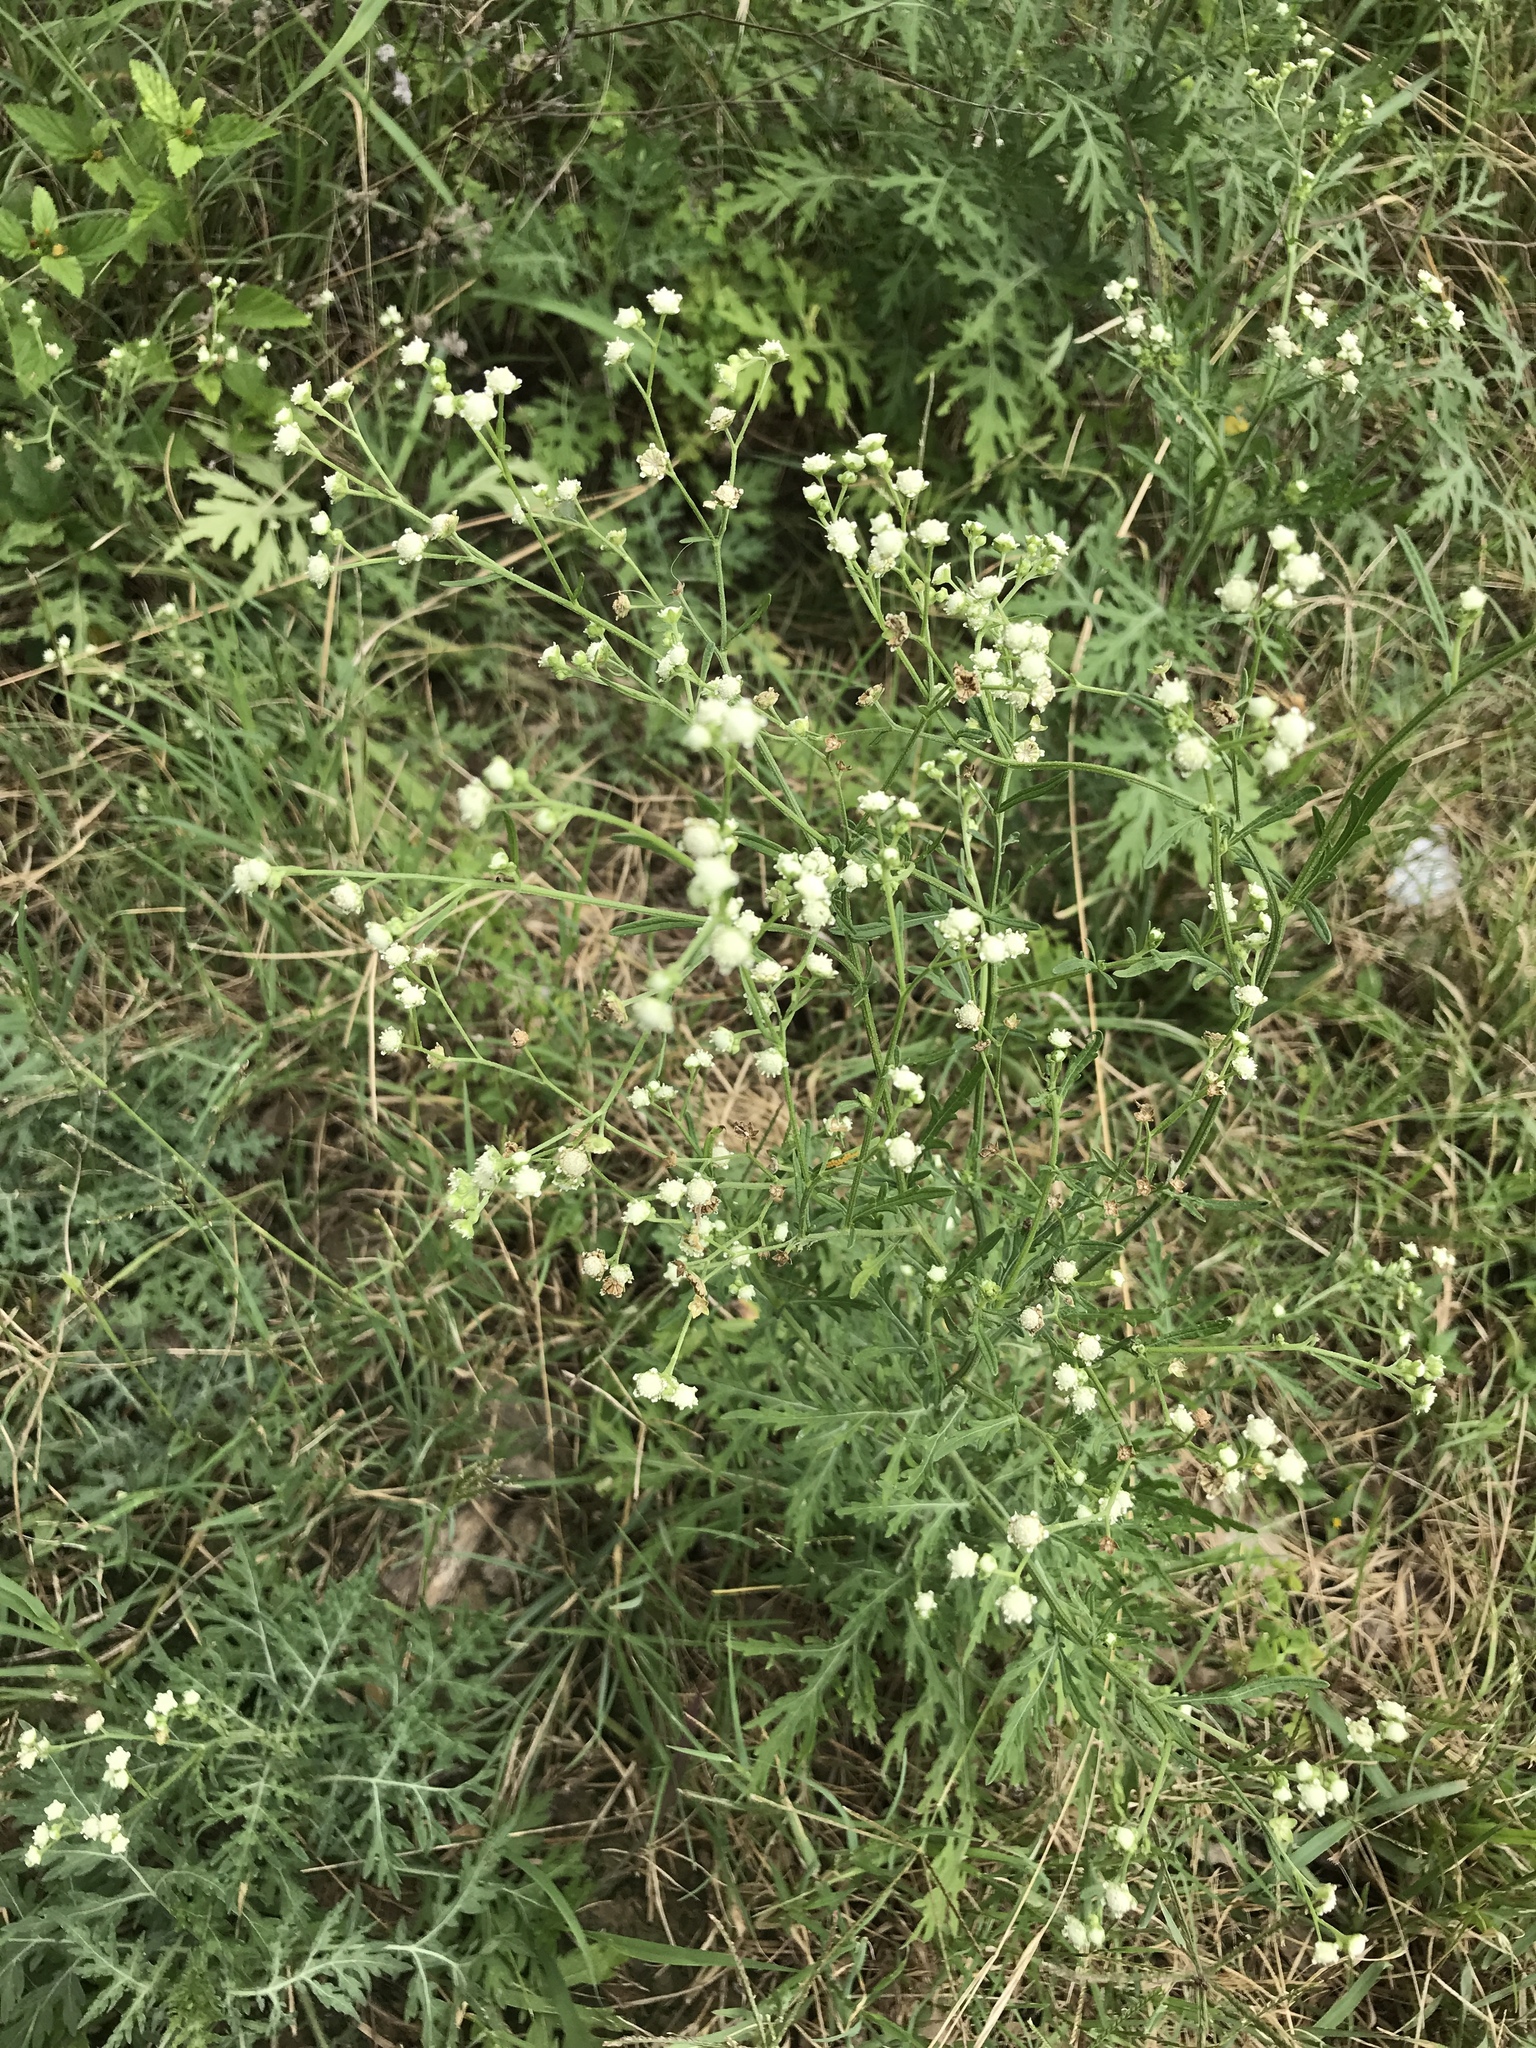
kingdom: Plantae
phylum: Tracheophyta
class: Magnoliopsida
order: Asterales
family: Asteraceae
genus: Parthenium
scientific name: Parthenium hysterophorus
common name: Santa maria feverfew
